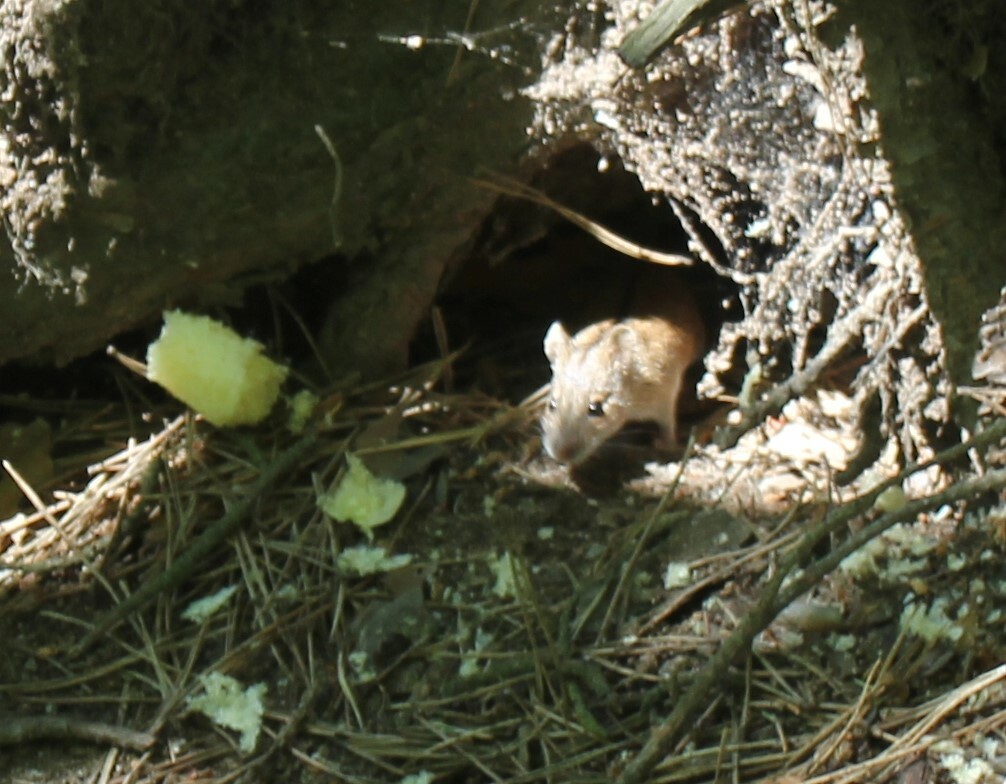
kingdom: Animalia
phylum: Chordata
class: Mammalia
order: Rodentia
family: Muridae
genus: Apodemus
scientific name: Apodemus agrarius
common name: Striped field mouse
